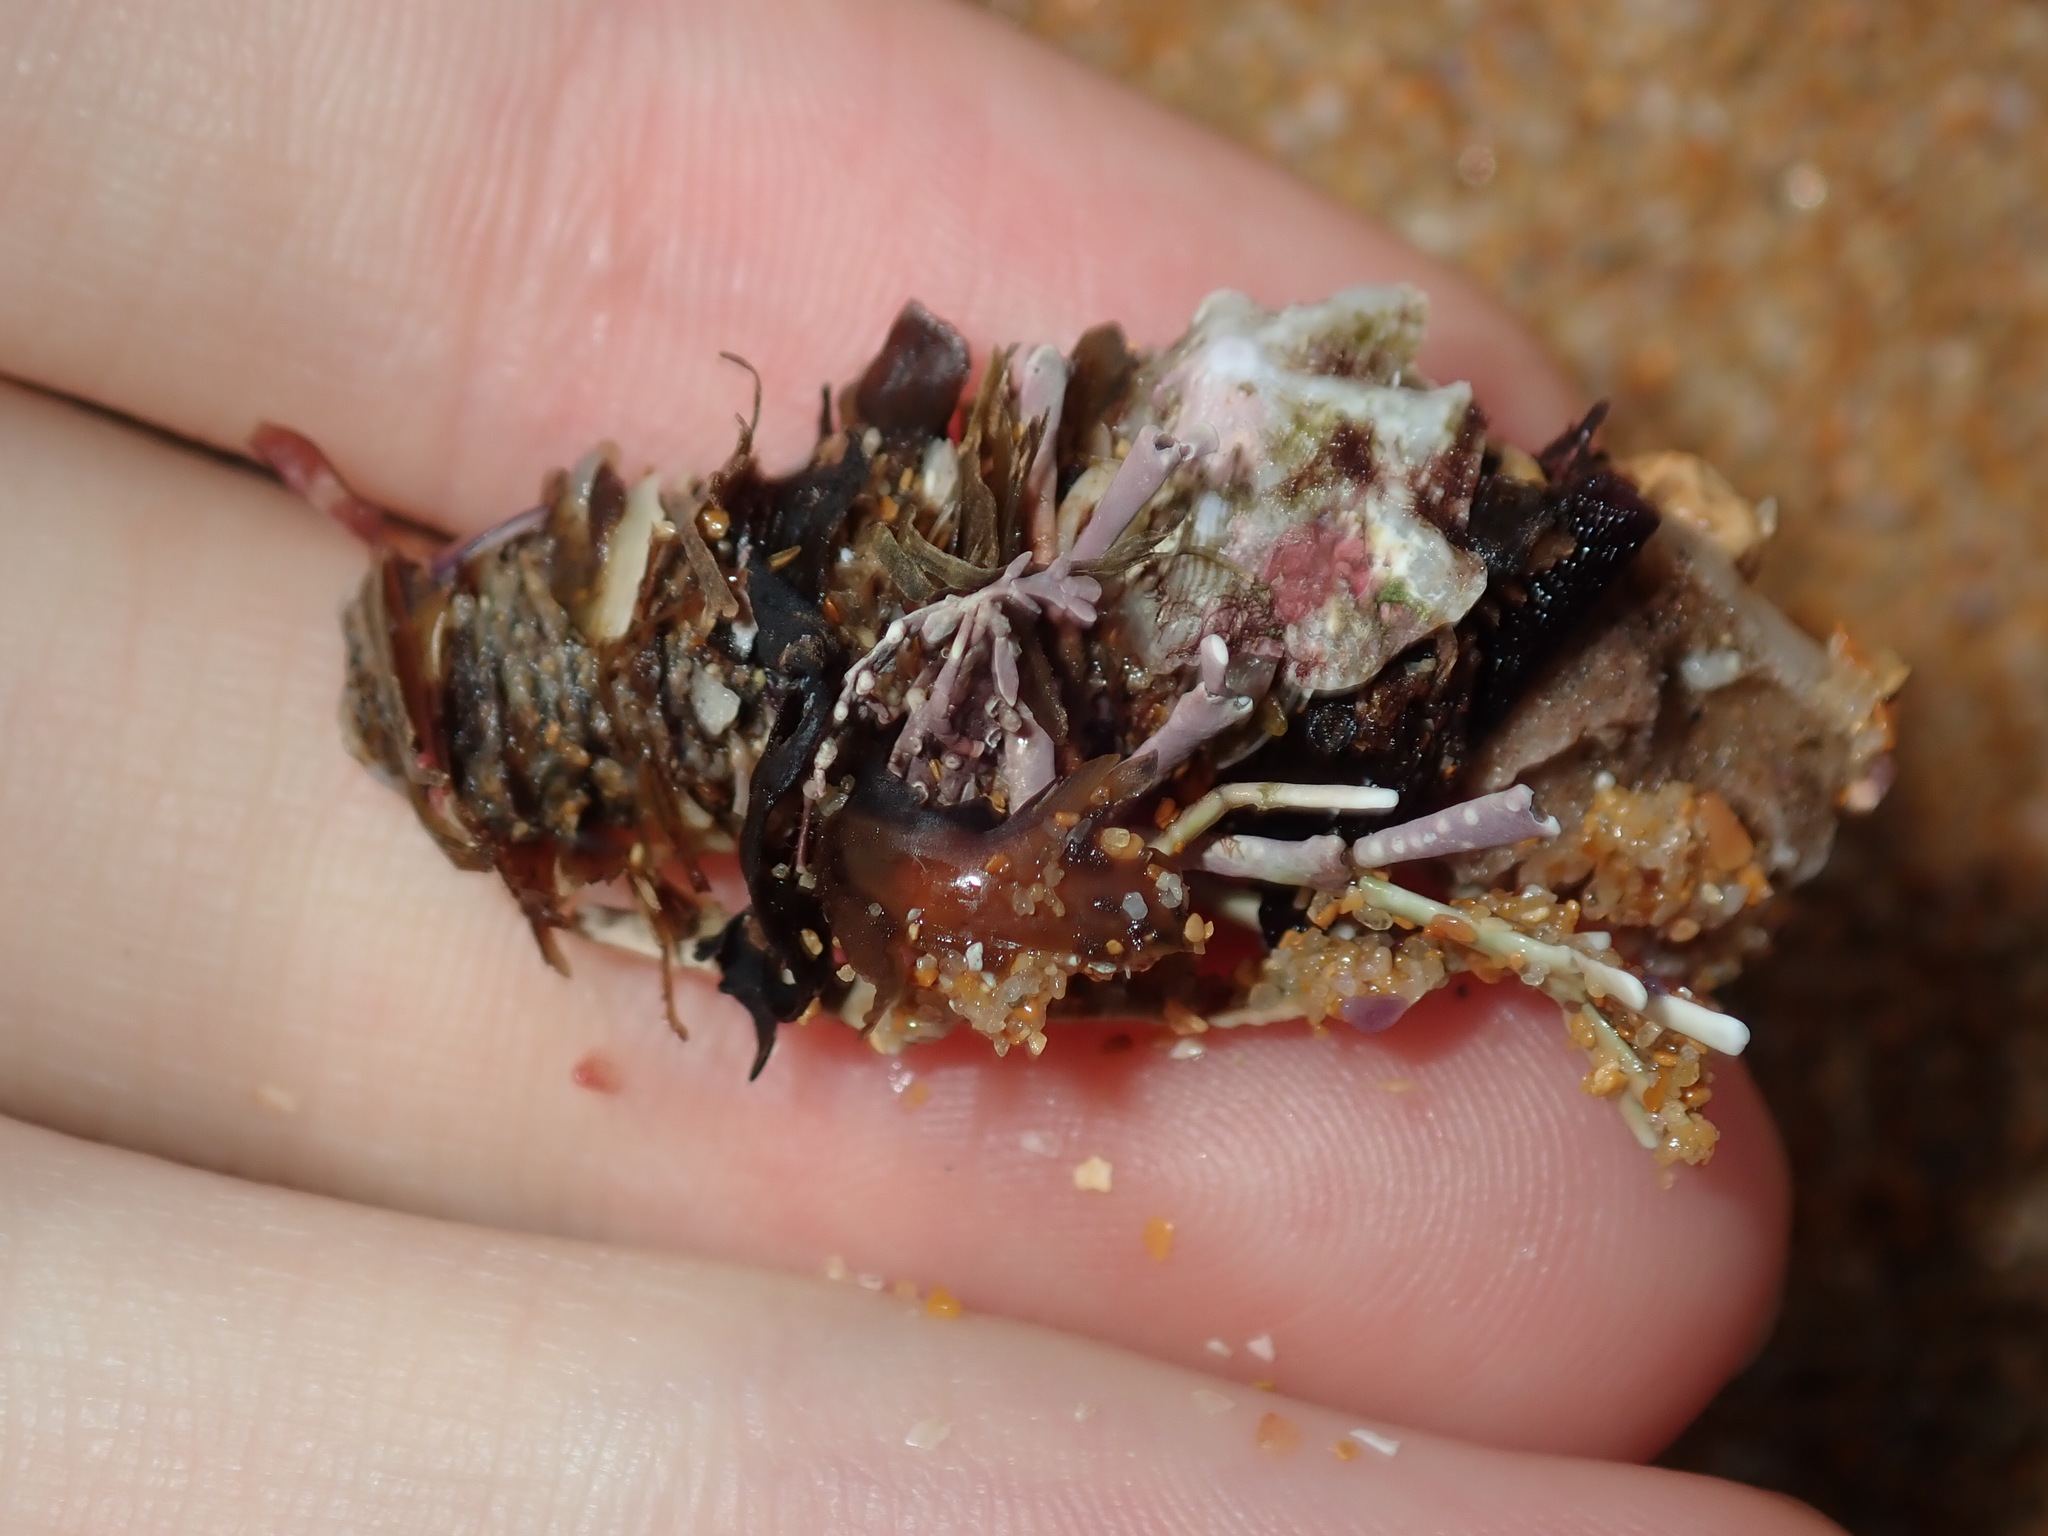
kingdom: Animalia
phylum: Annelida
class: Polychaeta
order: Eunicida
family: Onuphidae
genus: Diopatra
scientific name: Diopatra dentata
